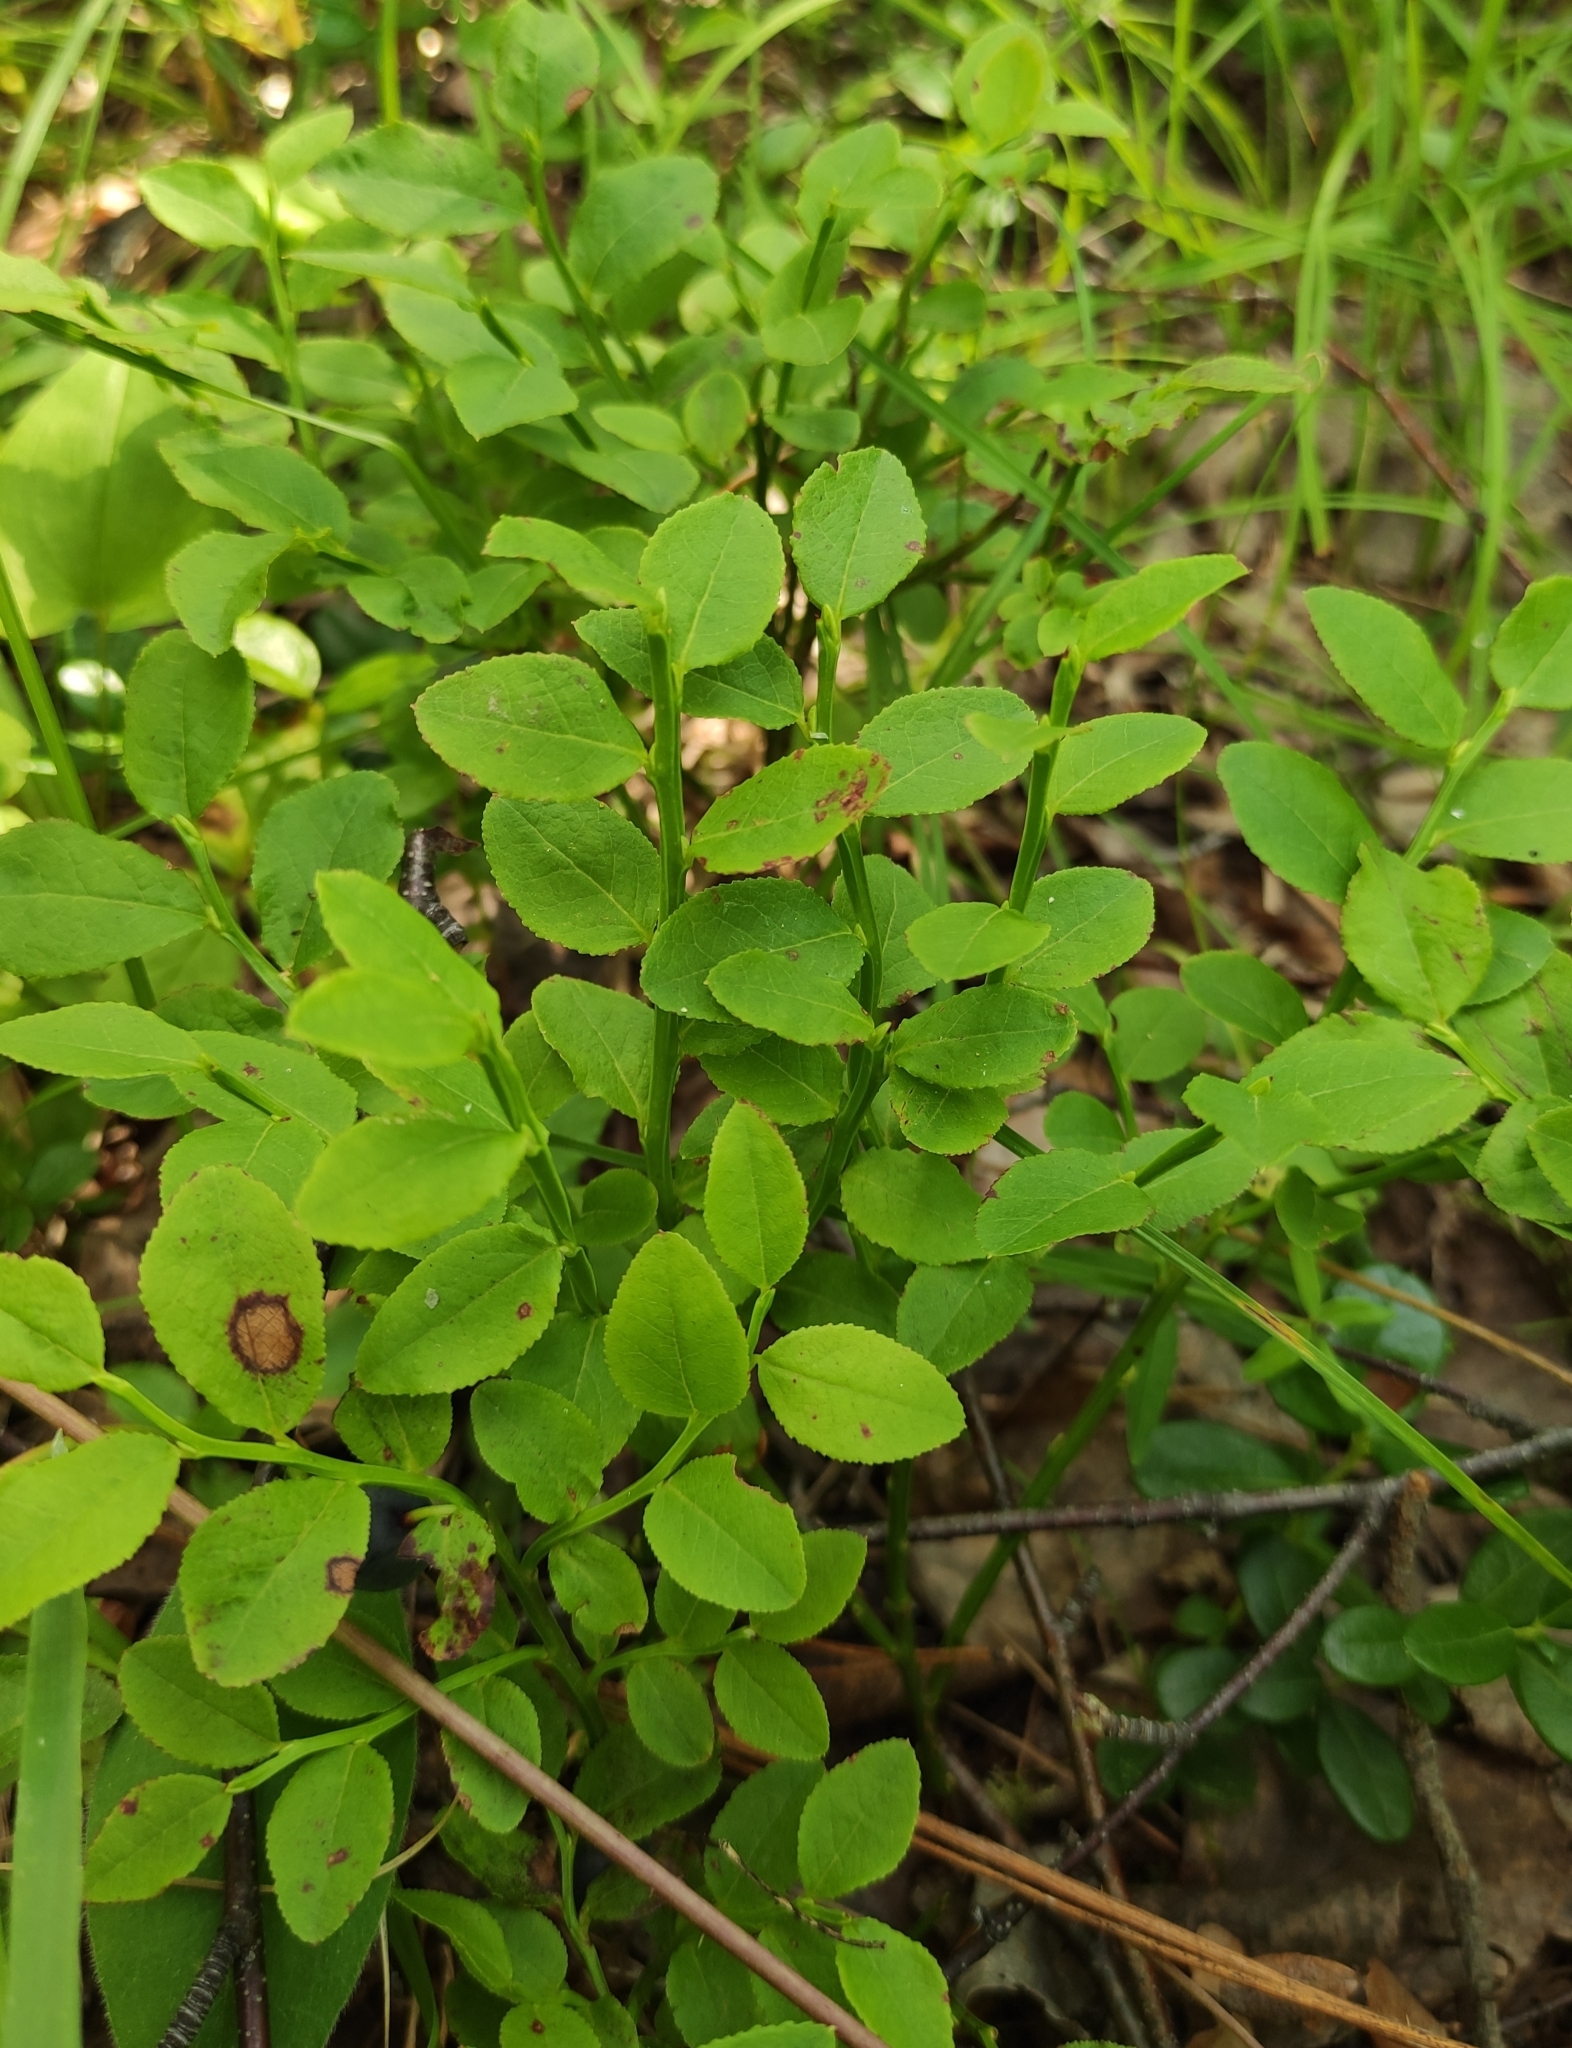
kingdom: Plantae
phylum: Tracheophyta
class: Magnoliopsida
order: Ericales
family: Ericaceae
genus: Vaccinium
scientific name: Vaccinium myrtillus
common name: Bilberry
